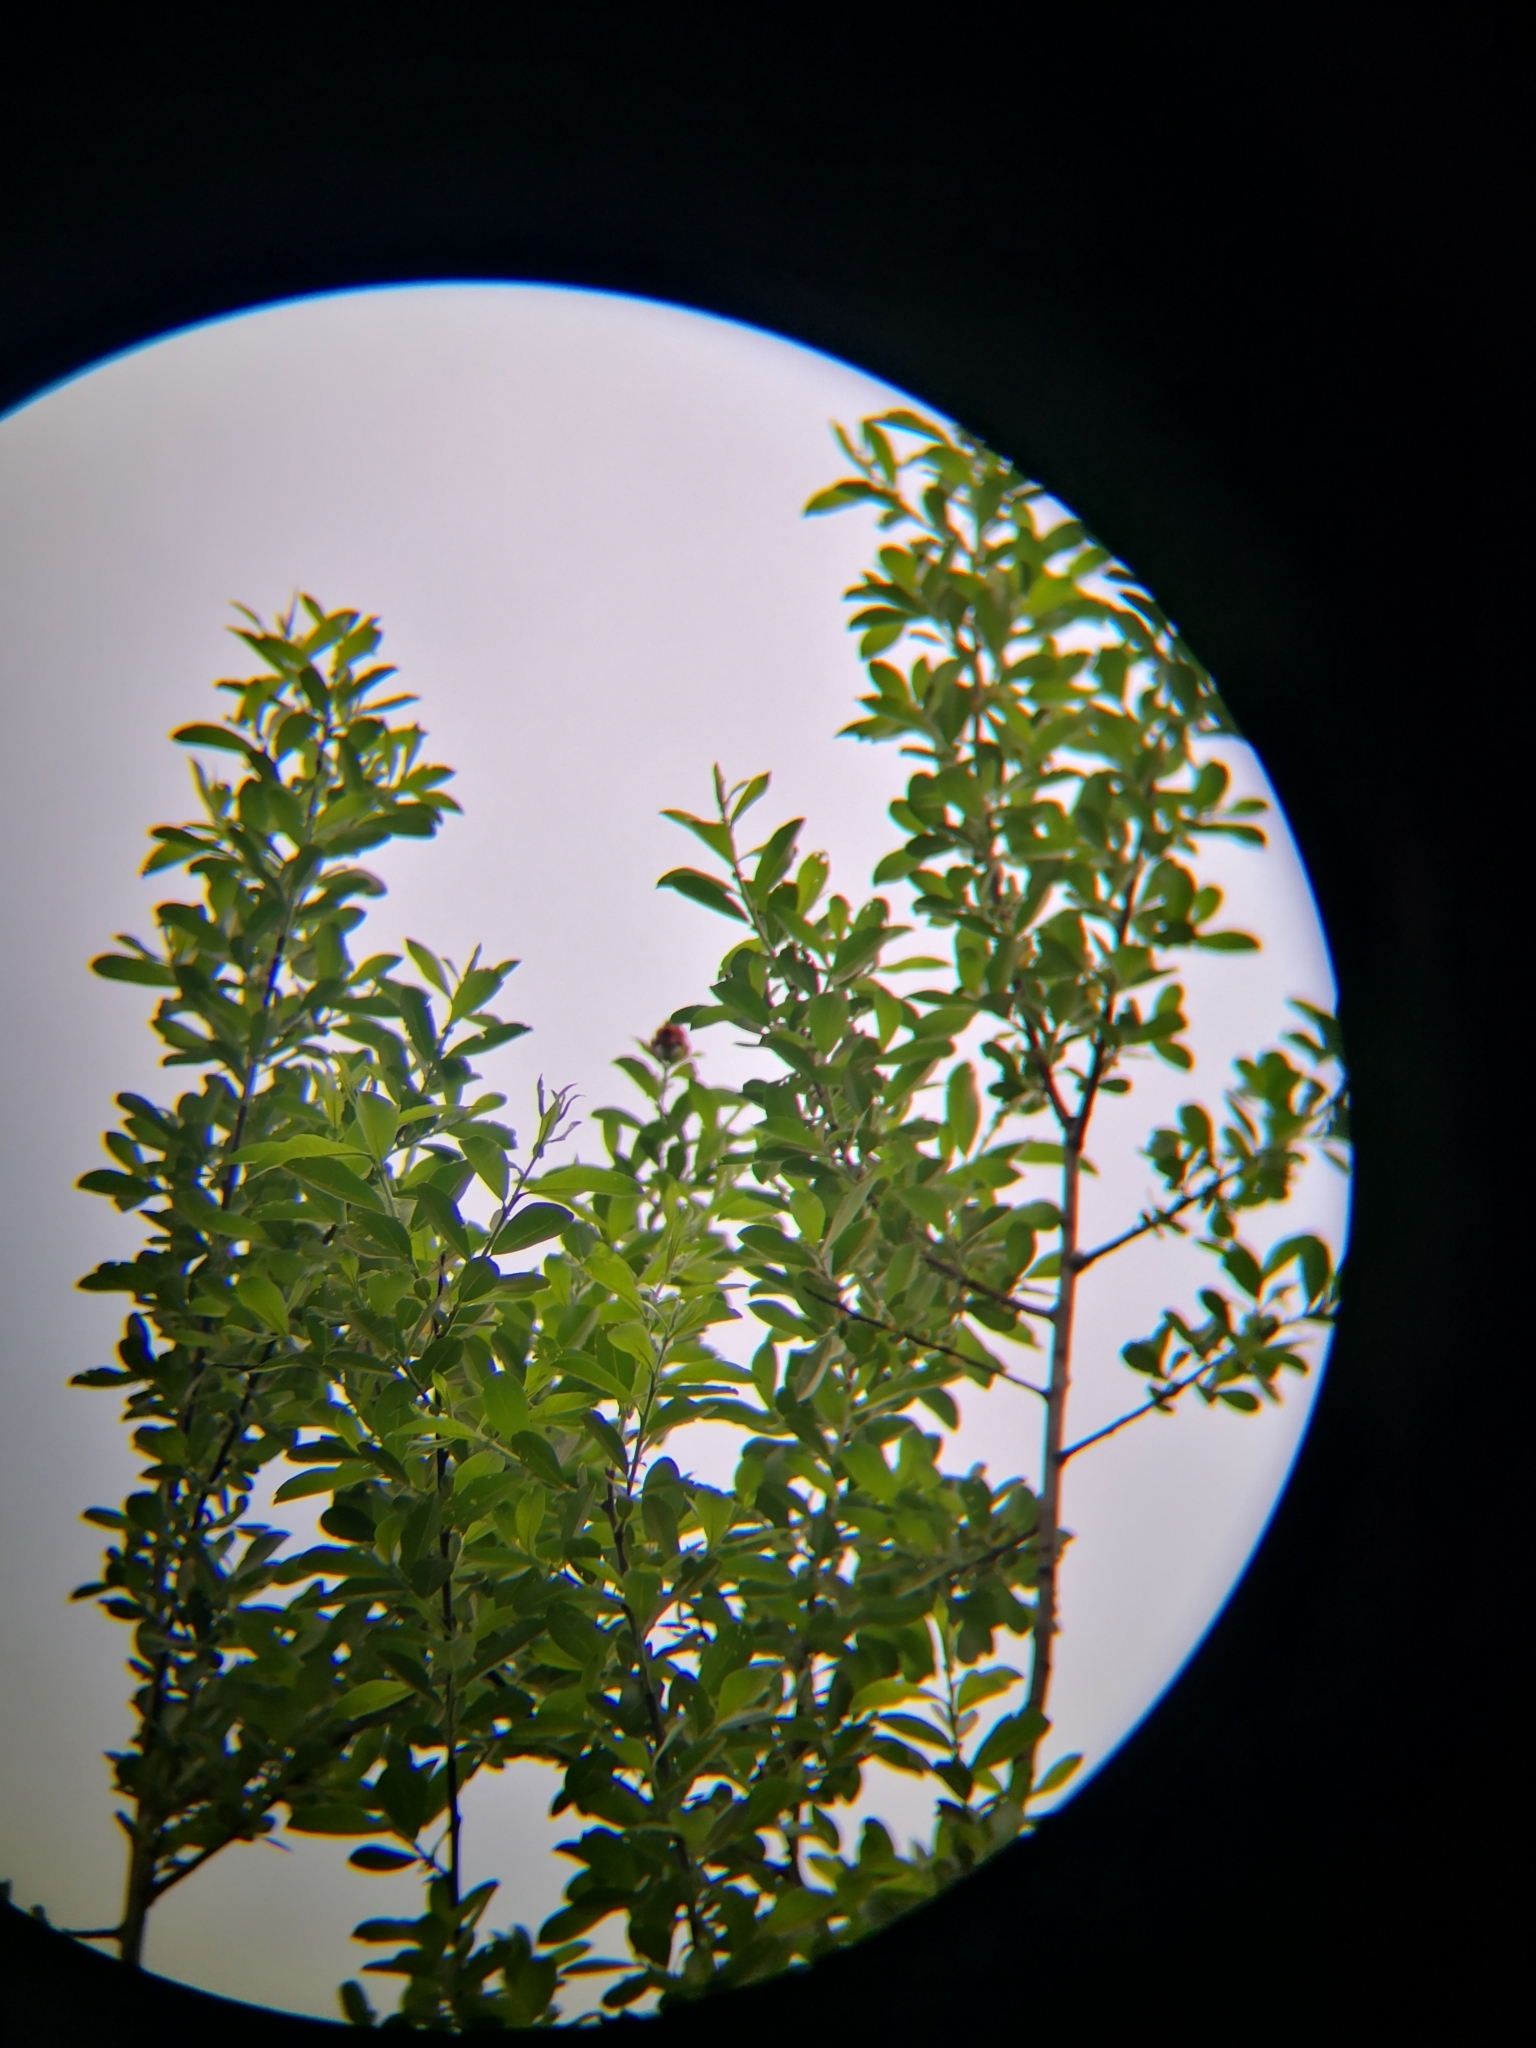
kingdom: Animalia
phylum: Chordata
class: Aves
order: Apodiformes
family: Trochilidae
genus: Selasphorus
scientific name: Selasphorus rufus
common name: Rufous hummingbird
